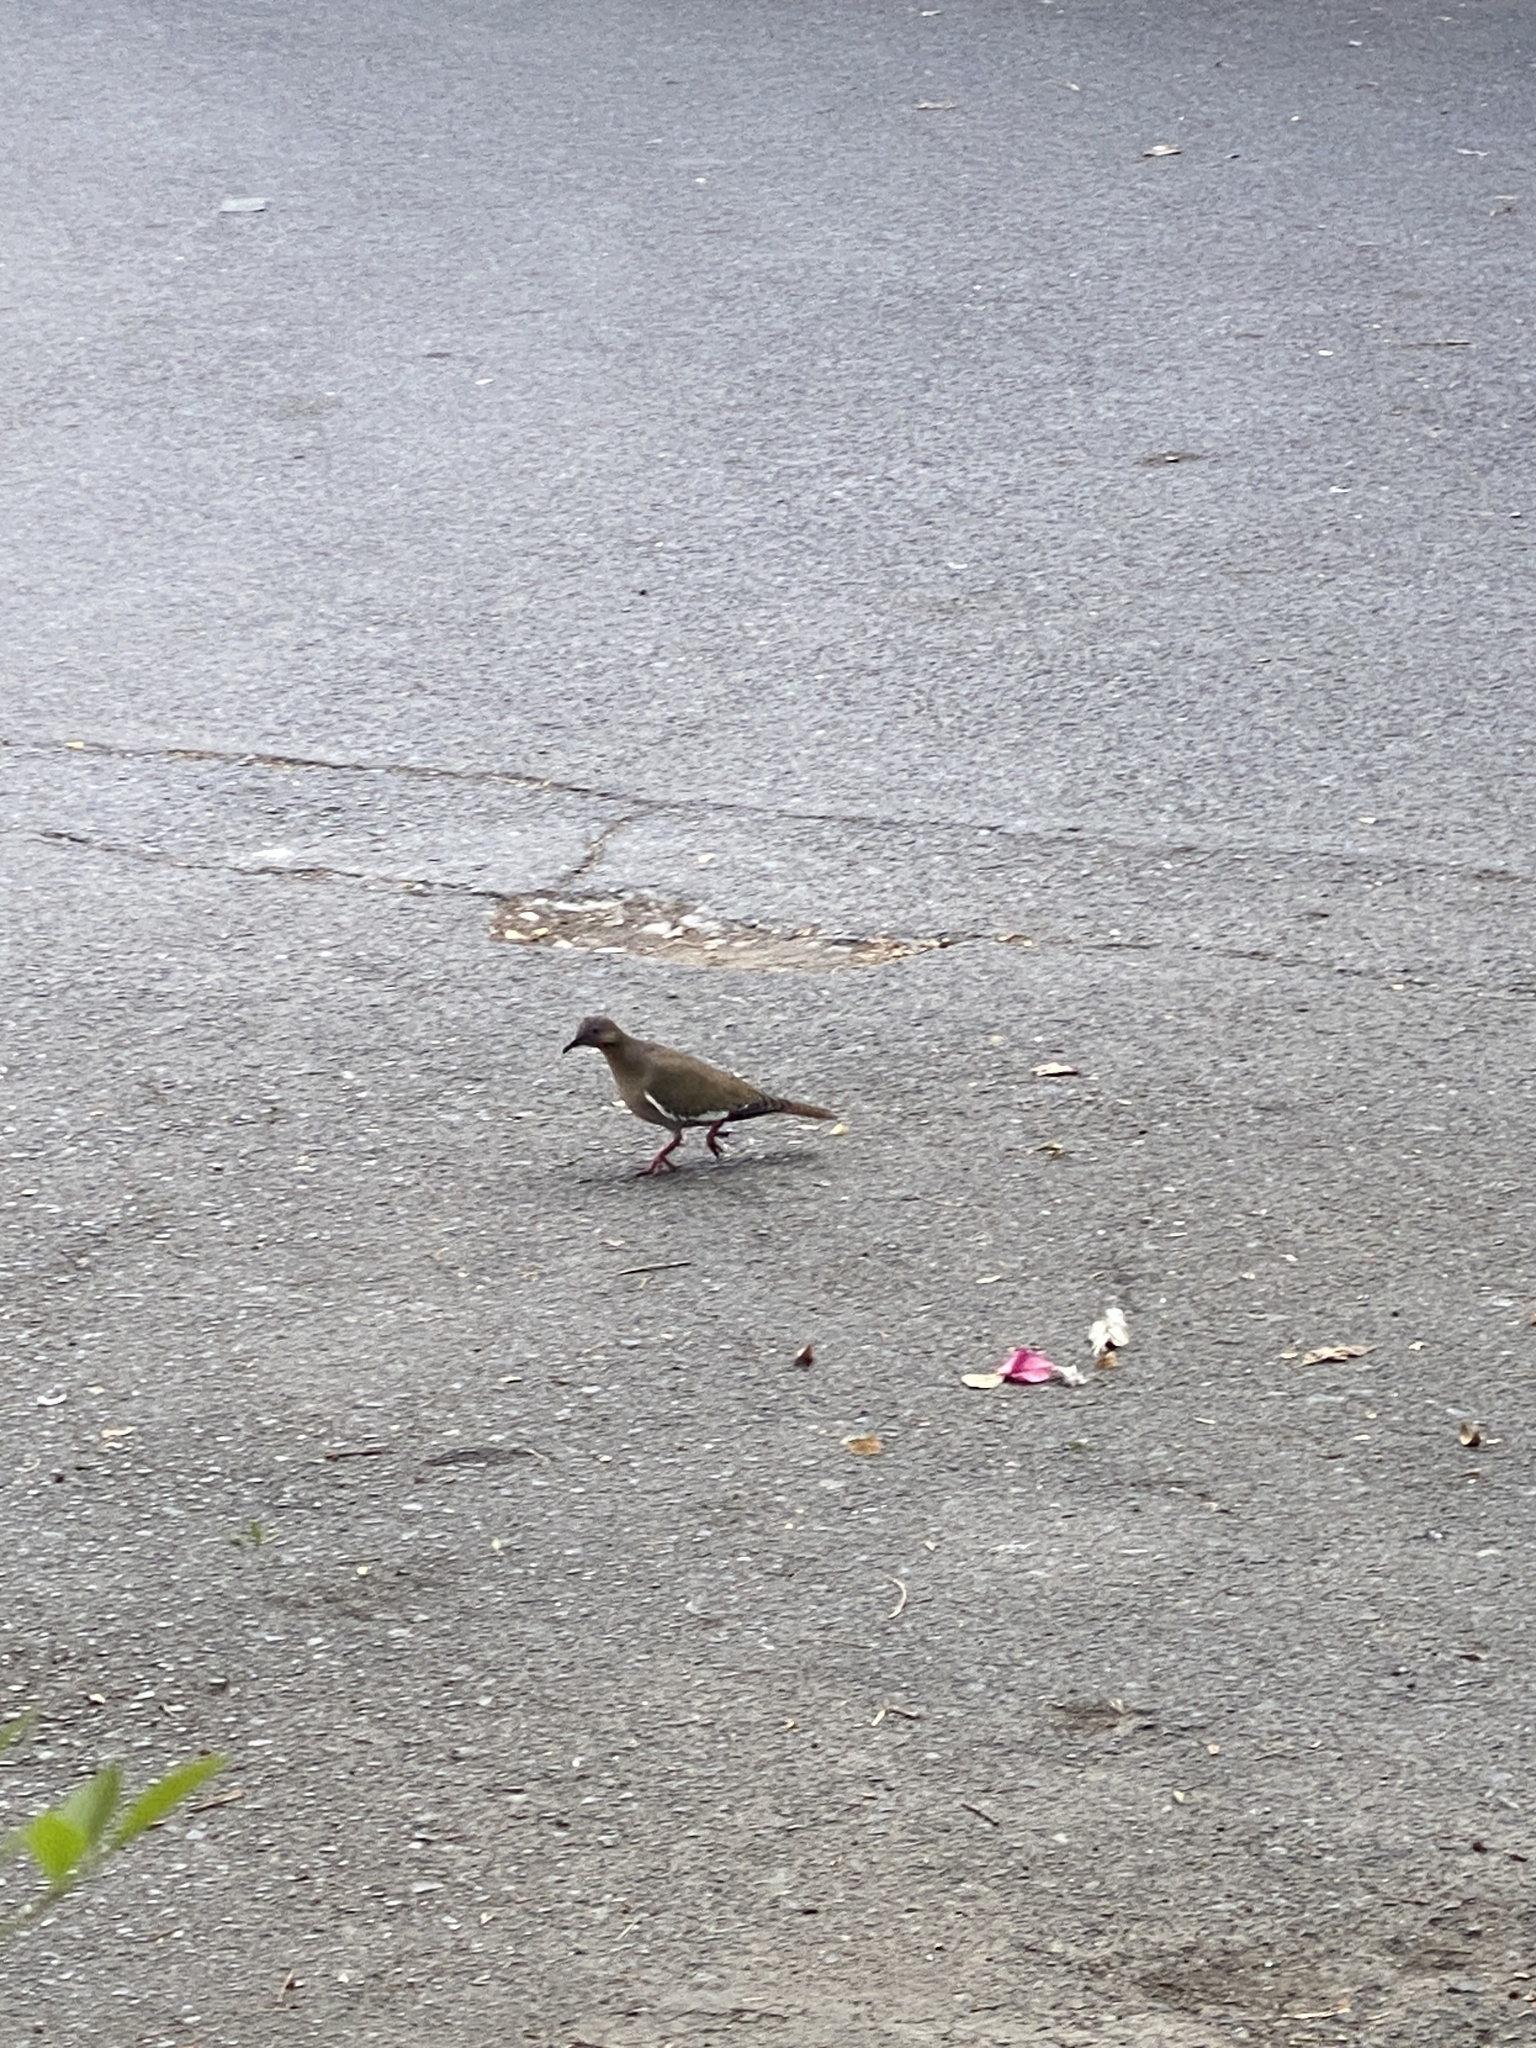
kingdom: Animalia
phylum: Chordata
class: Aves
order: Columbiformes
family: Columbidae
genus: Zenaida
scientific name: Zenaida asiatica
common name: White-winged dove
